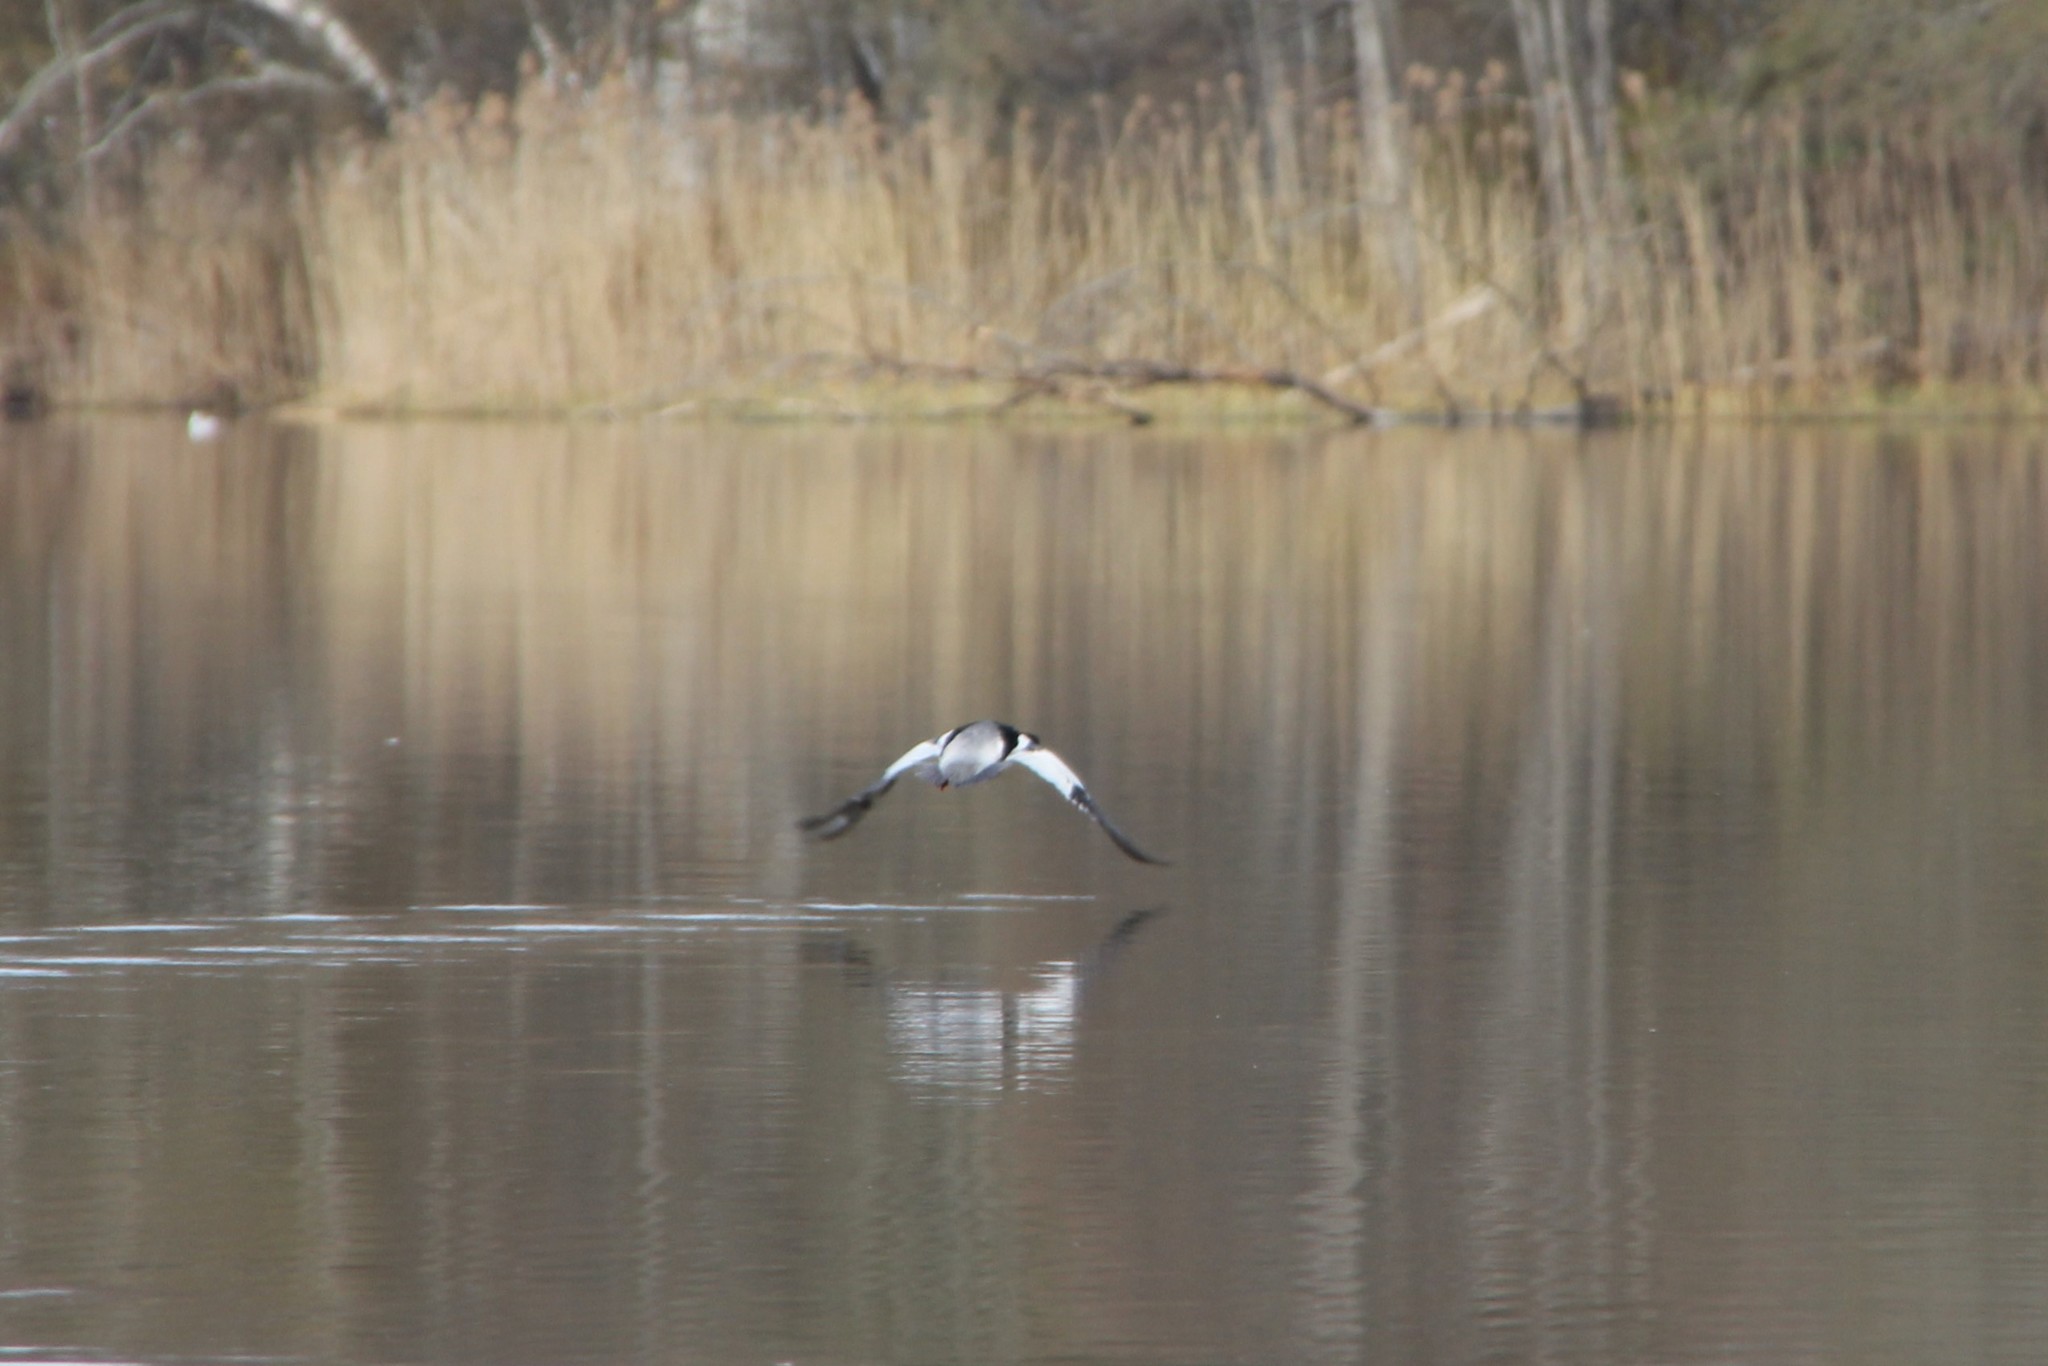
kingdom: Animalia
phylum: Chordata
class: Aves
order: Anseriformes
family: Anatidae
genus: Mergus
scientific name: Mergus merganser
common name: Common merganser
